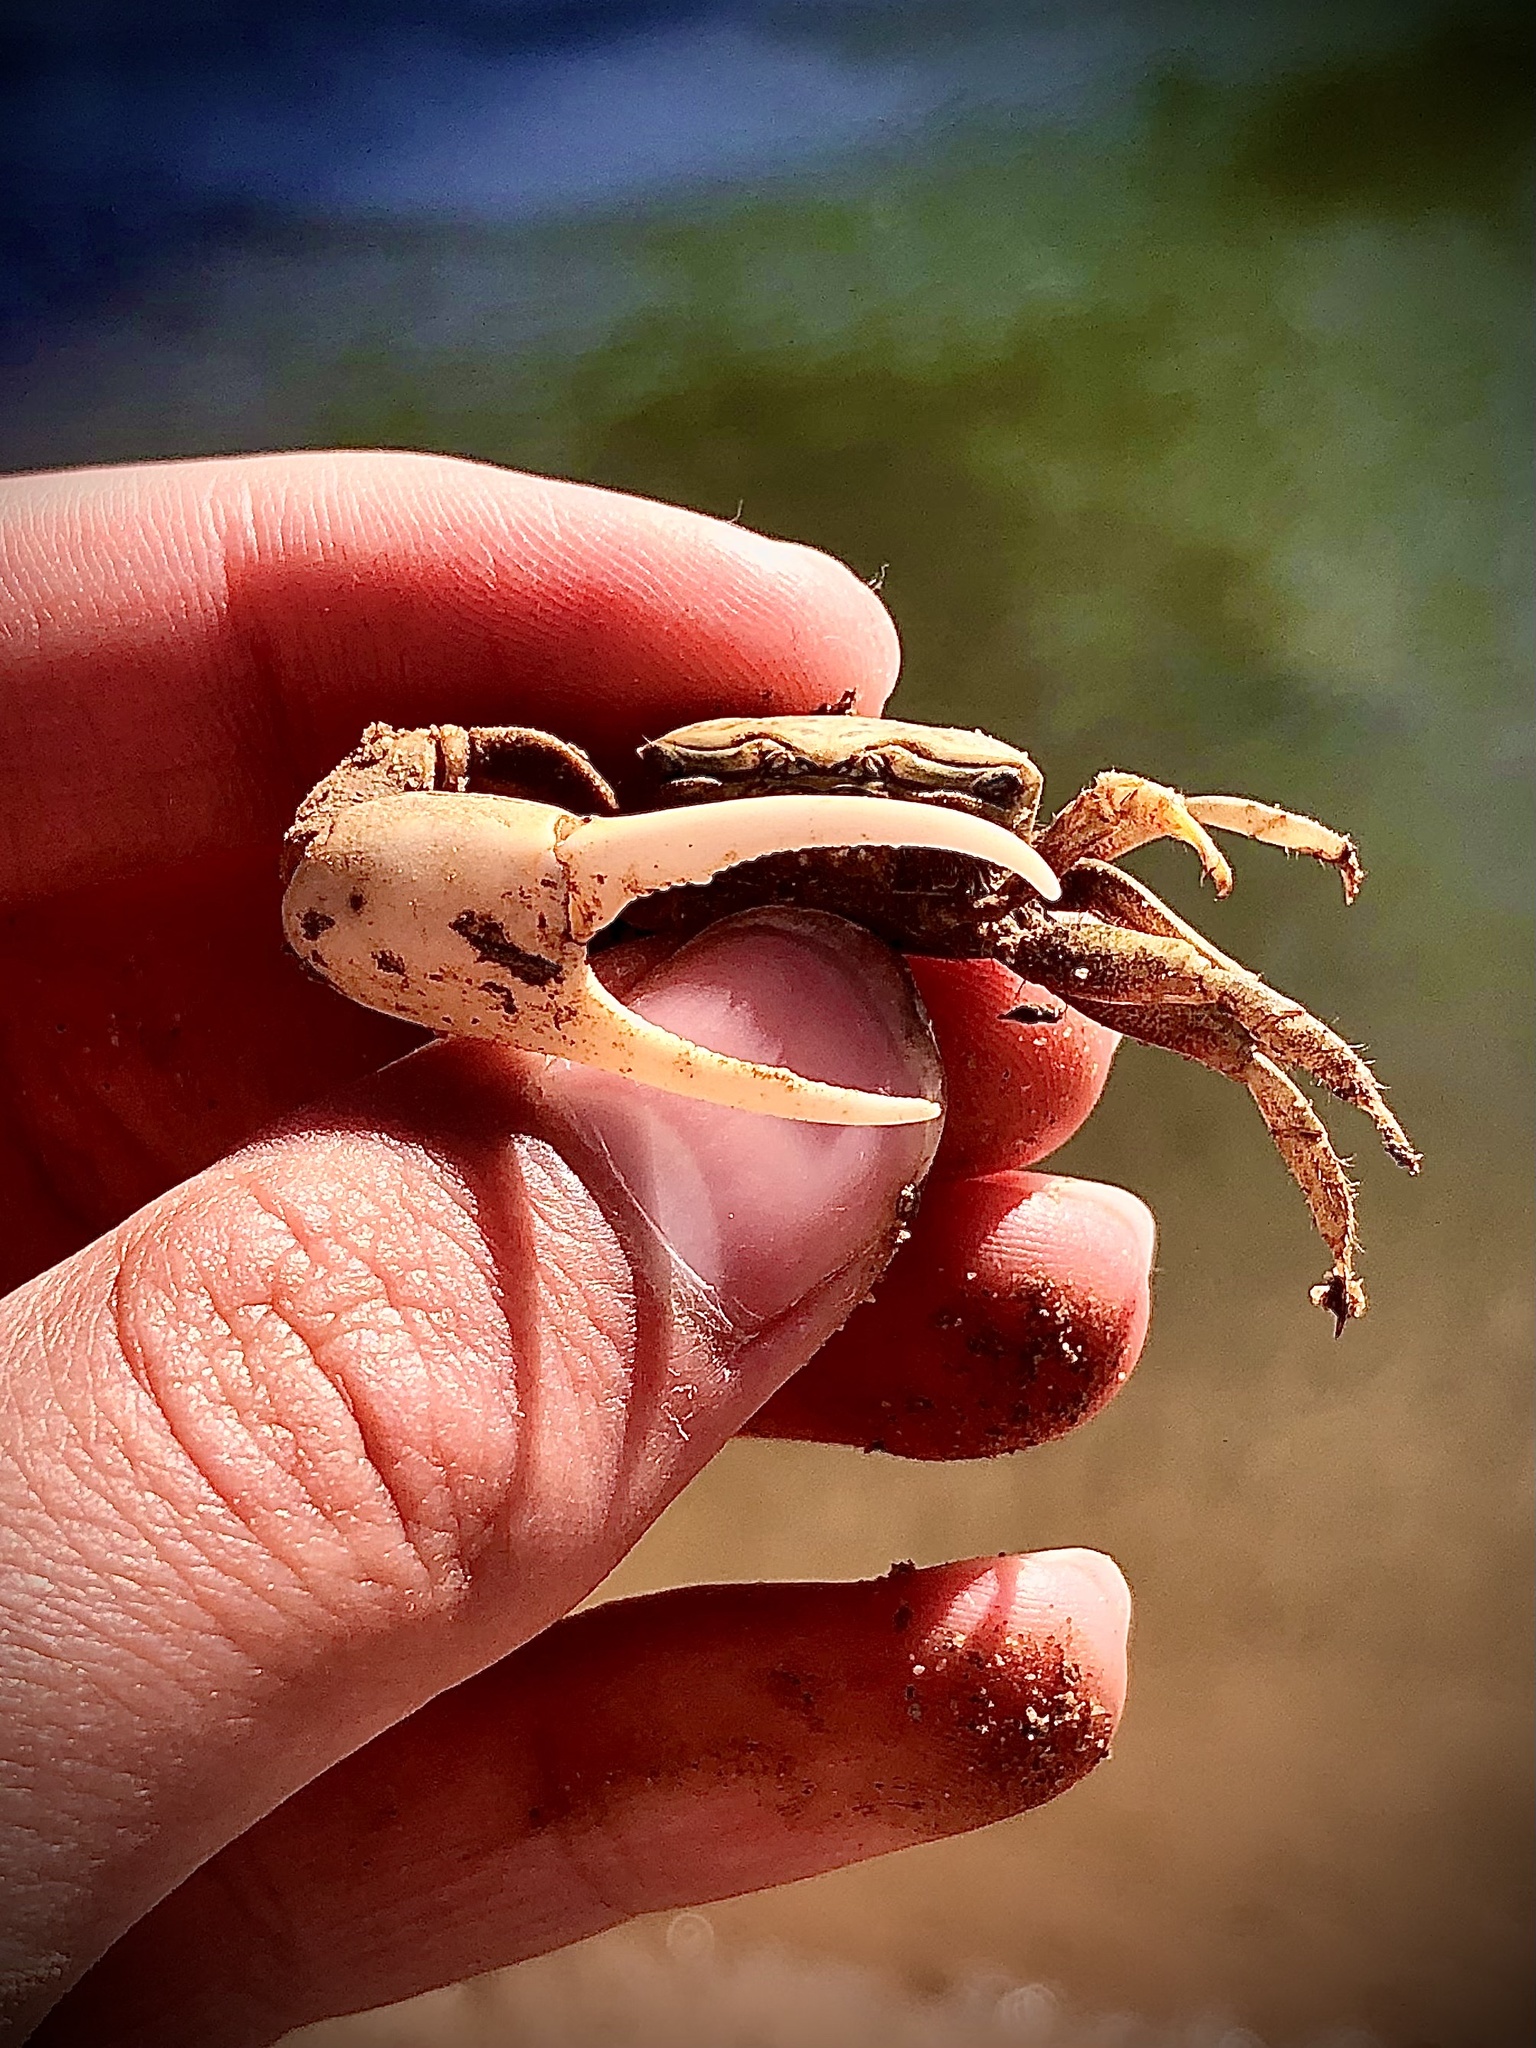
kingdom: Animalia
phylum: Arthropoda
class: Malacostraca
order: Decapoda
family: Ocypodidae
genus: Leptuca
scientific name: Leptuca crenulata
